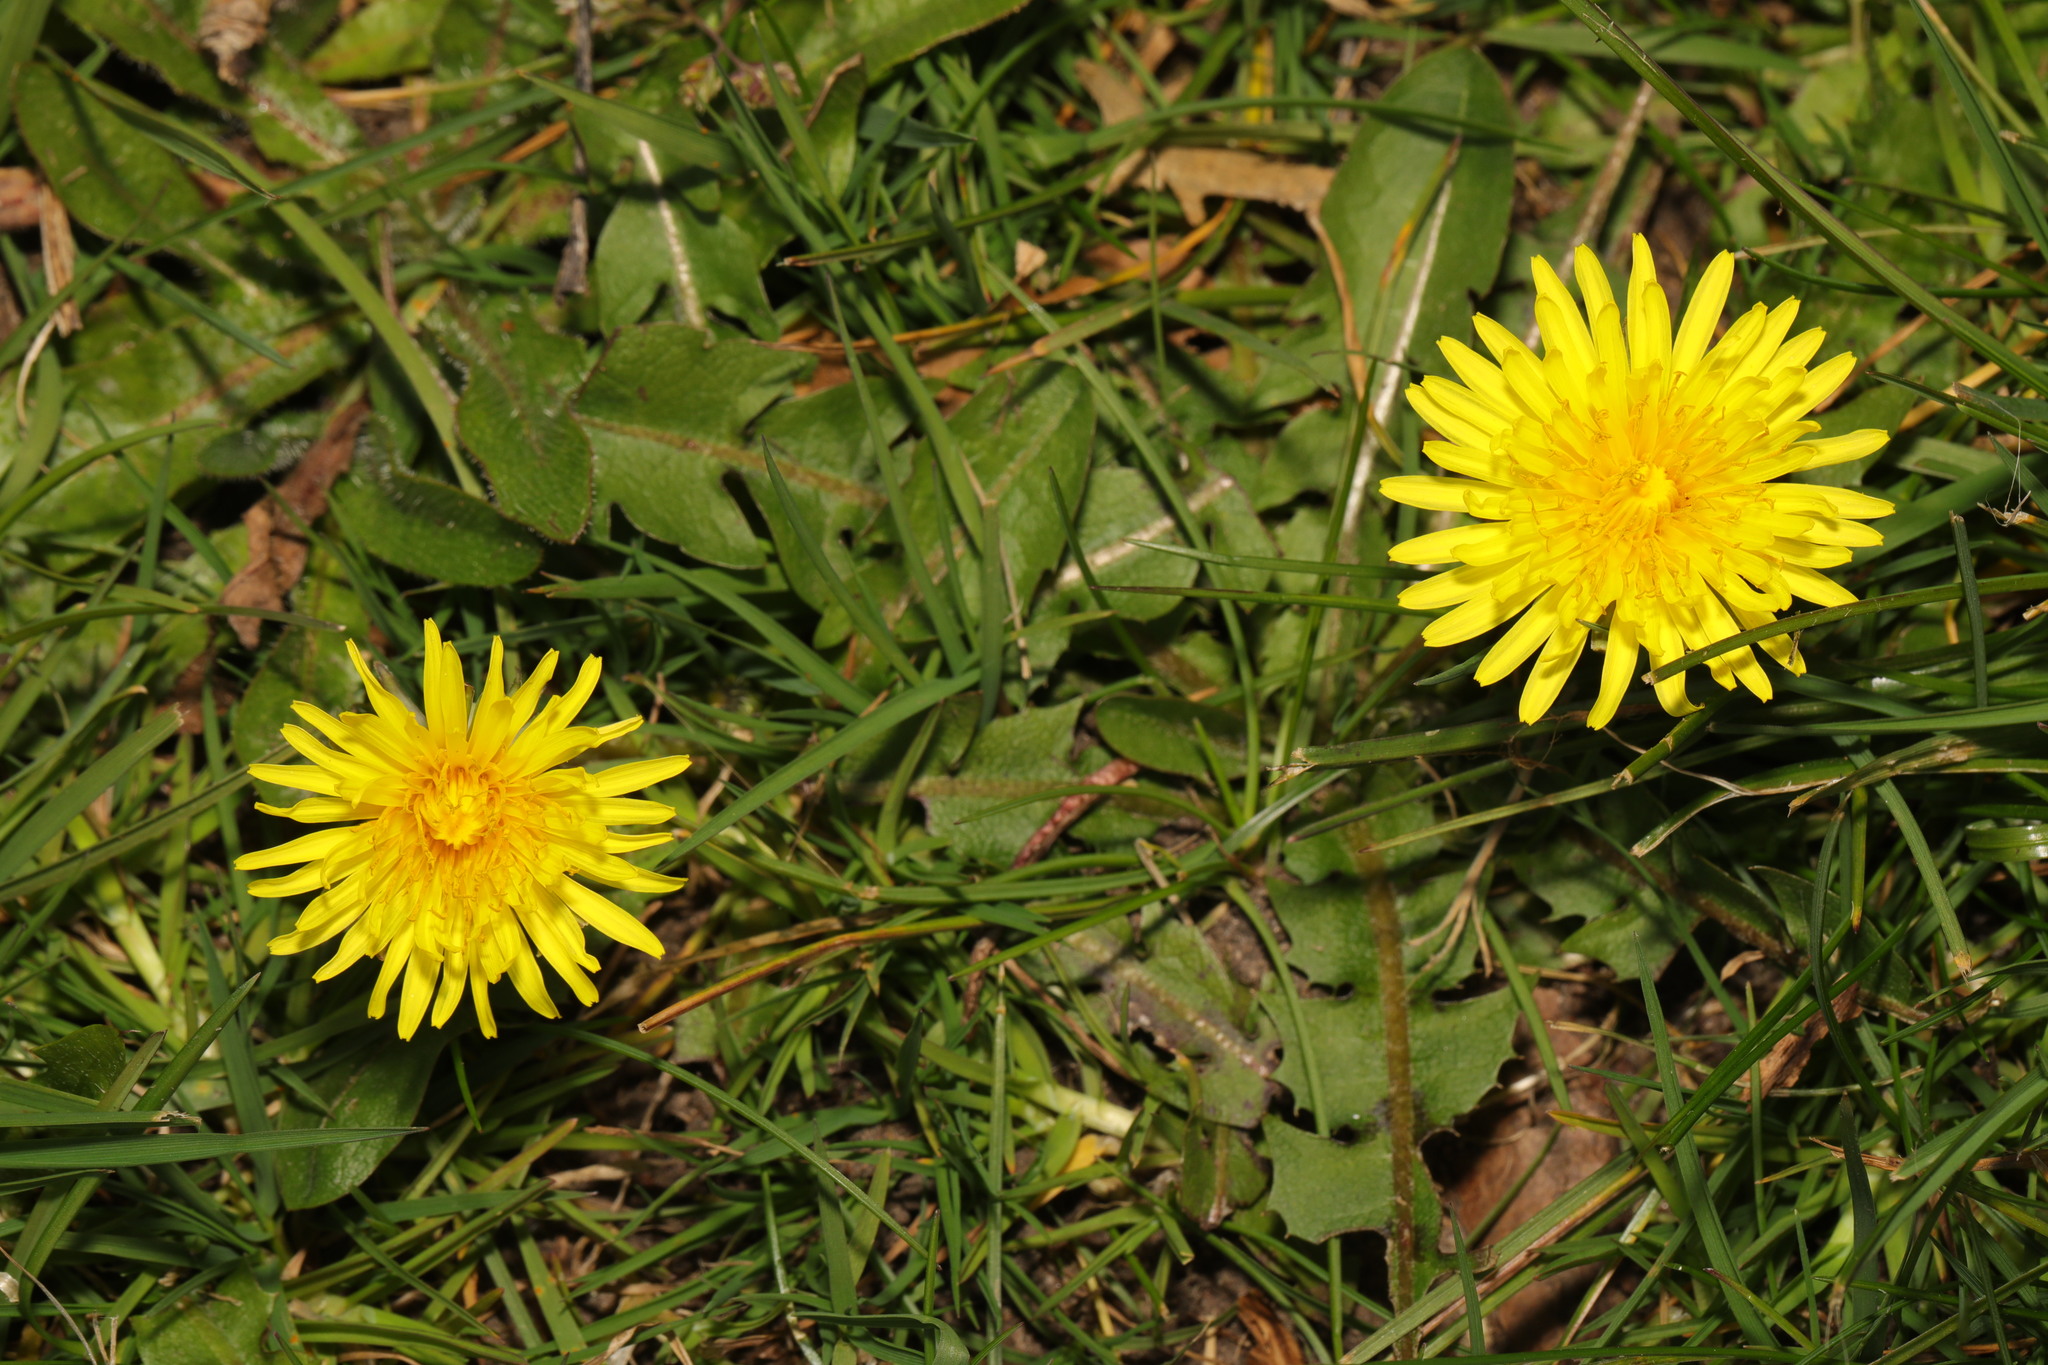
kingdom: Plantae
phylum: Tracheophyta
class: Magnoliopsida
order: Asterales
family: Asteraceae
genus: Taraxacum
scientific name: Taraxacum officinale
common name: Common dandelion
